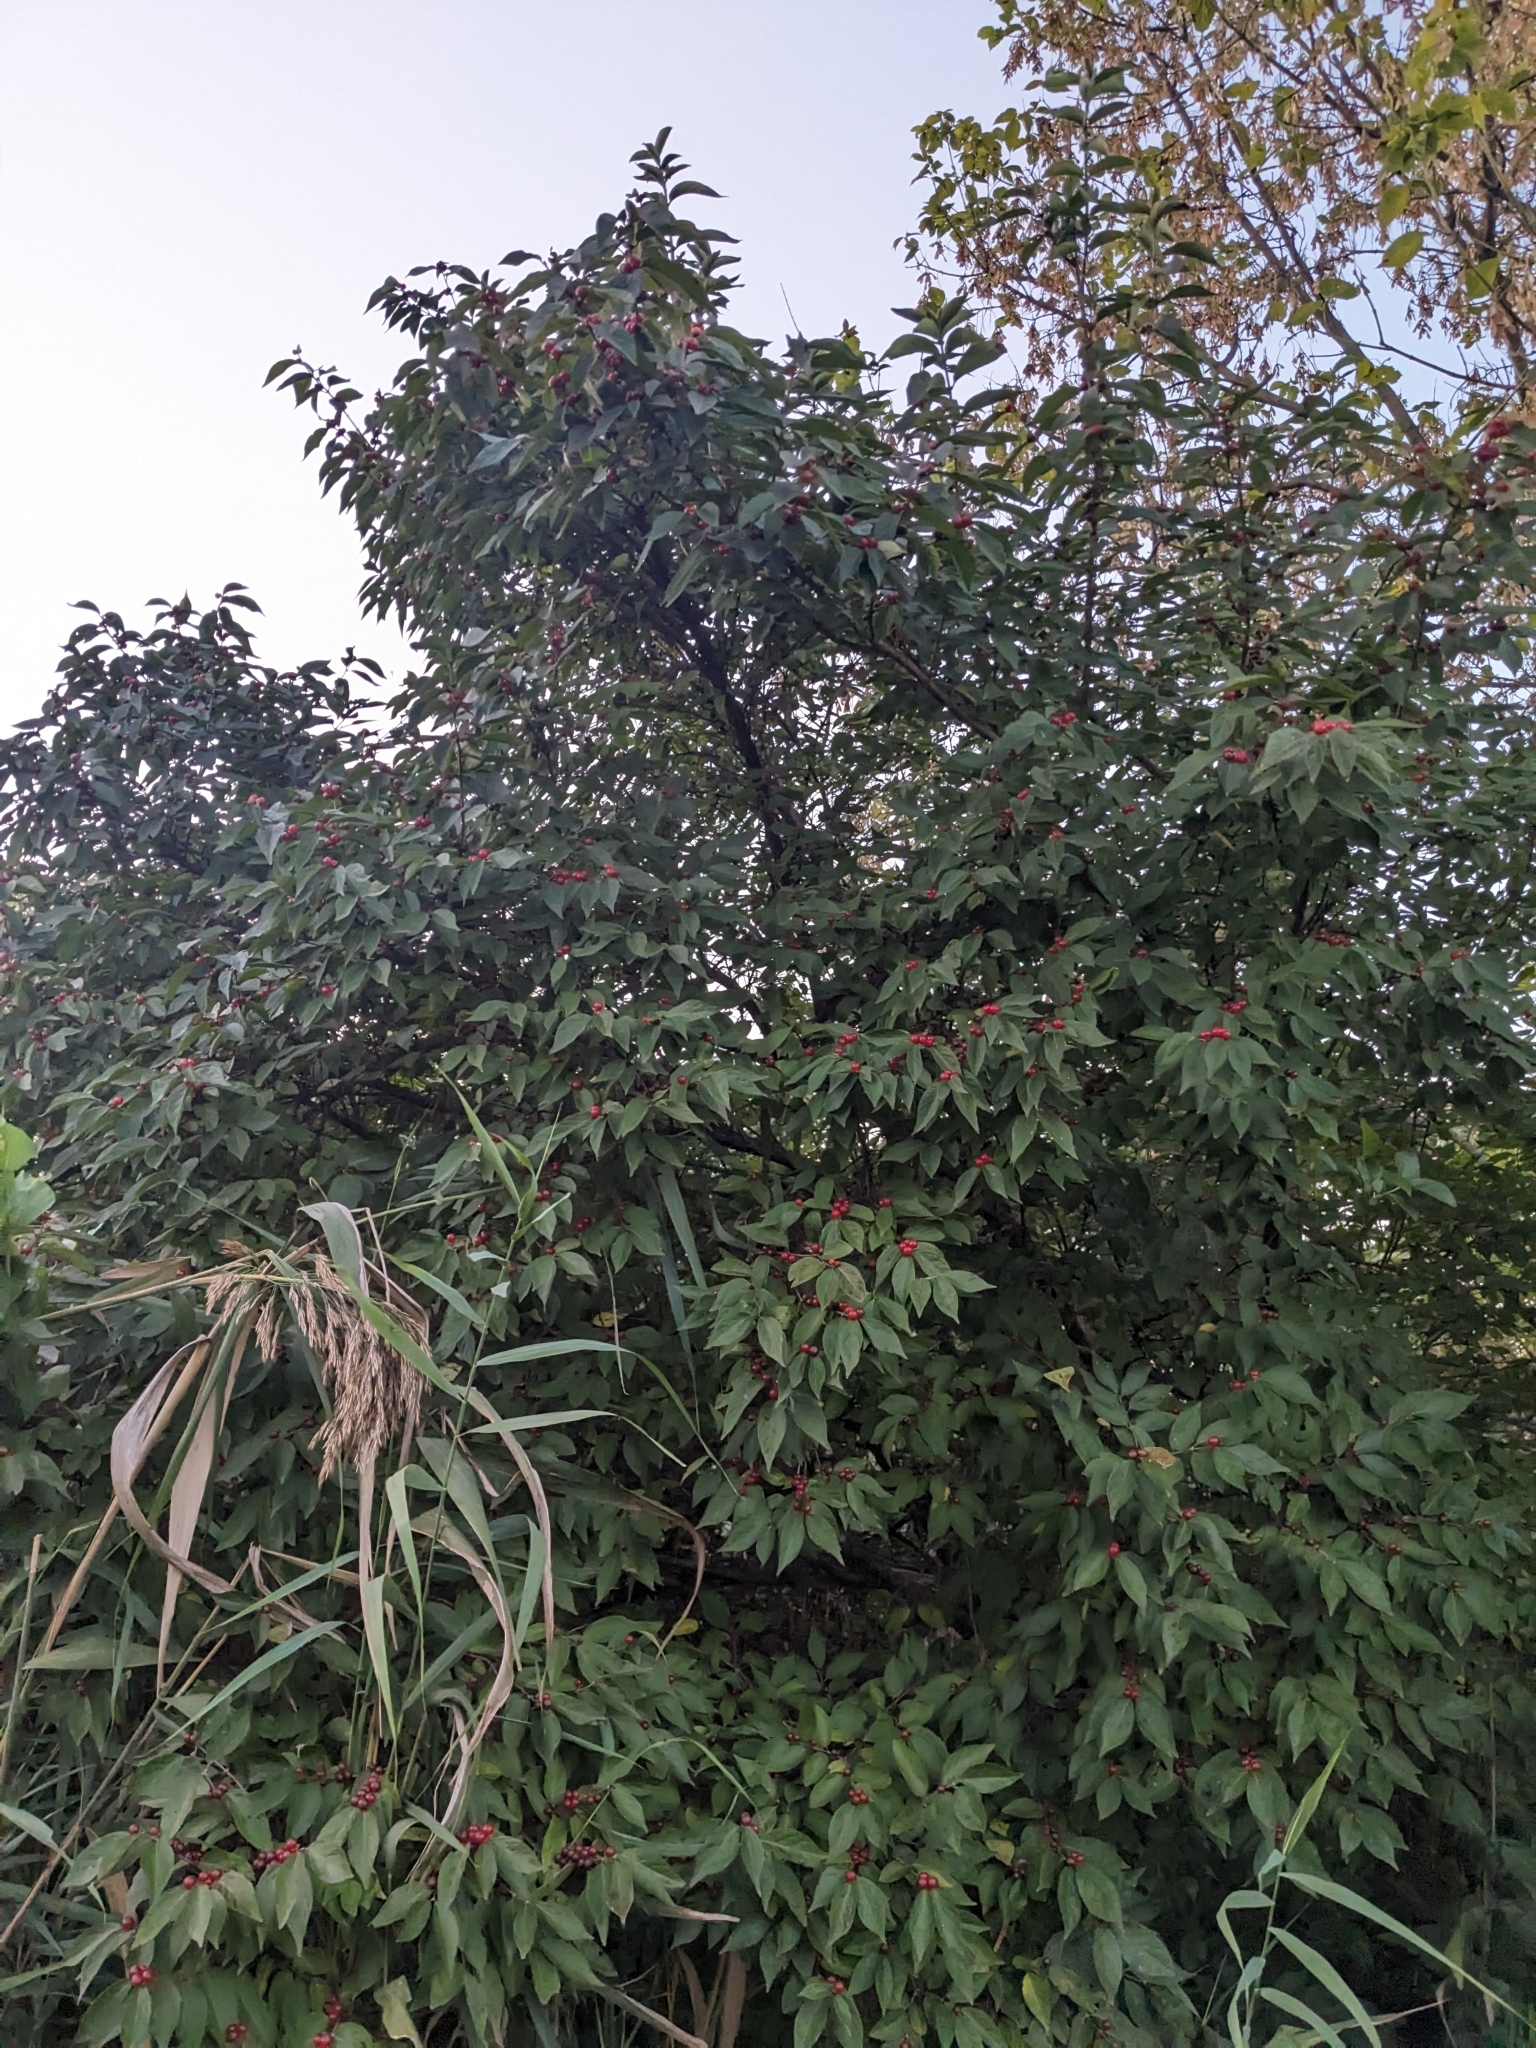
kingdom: Plantae
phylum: Tracheophyta
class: Magnoliopsida
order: Dipsacales
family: Caprifoliaceae
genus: Lonicera
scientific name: Lonicera maackii
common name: Amur honeysuckle
